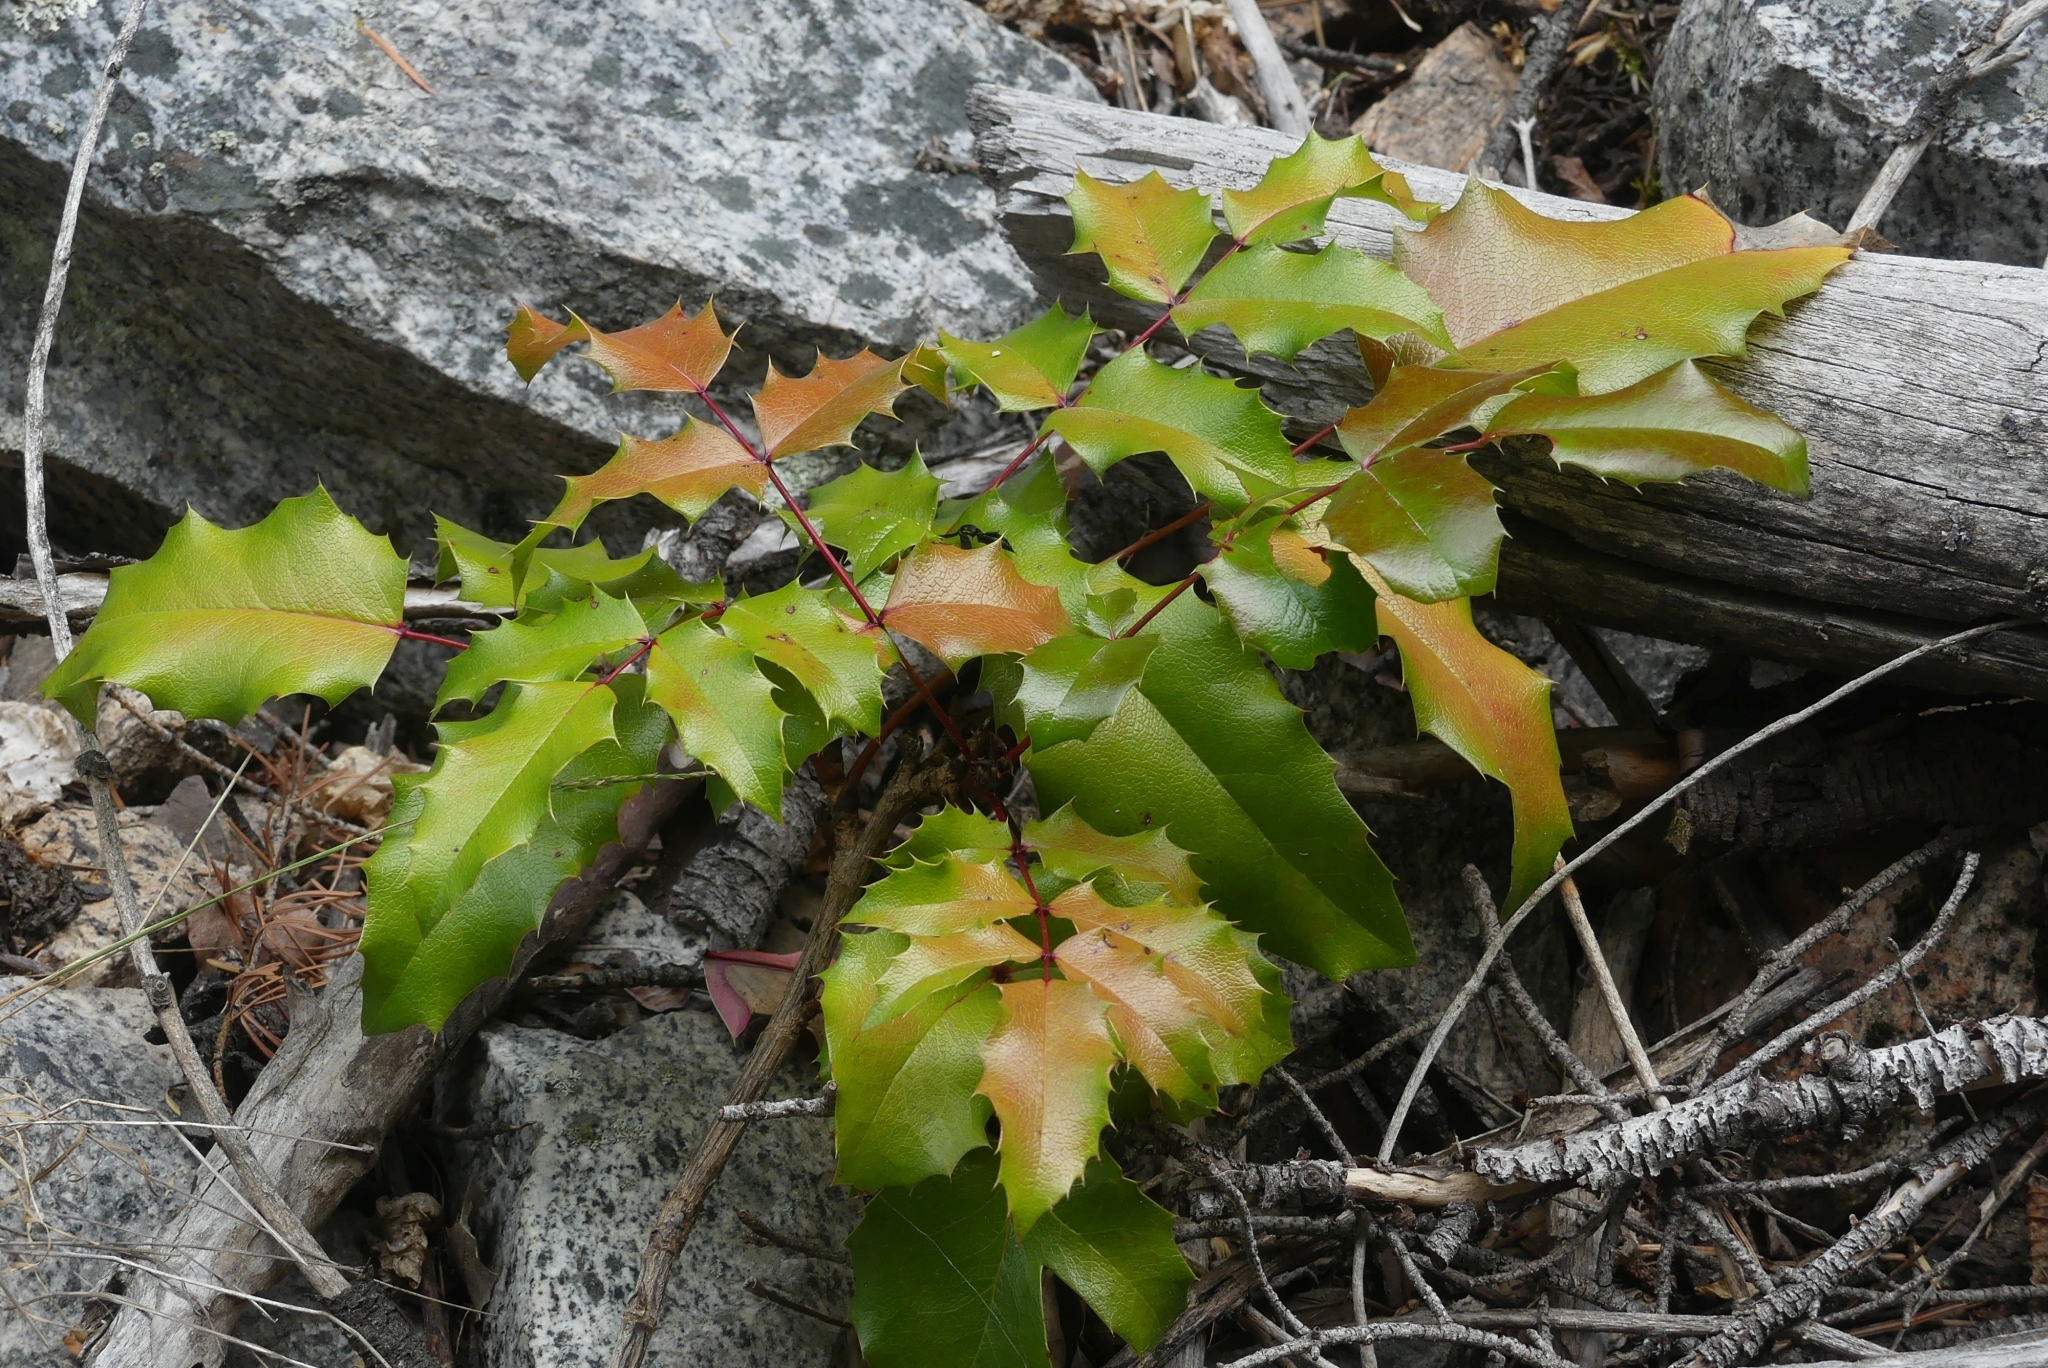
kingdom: Plantae
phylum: Tracheophyta
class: Magnoliopsida
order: Ranunculales
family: Berberidaceae
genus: Mahonia
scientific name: Mahonia aquifolium
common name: Oregon-grape
